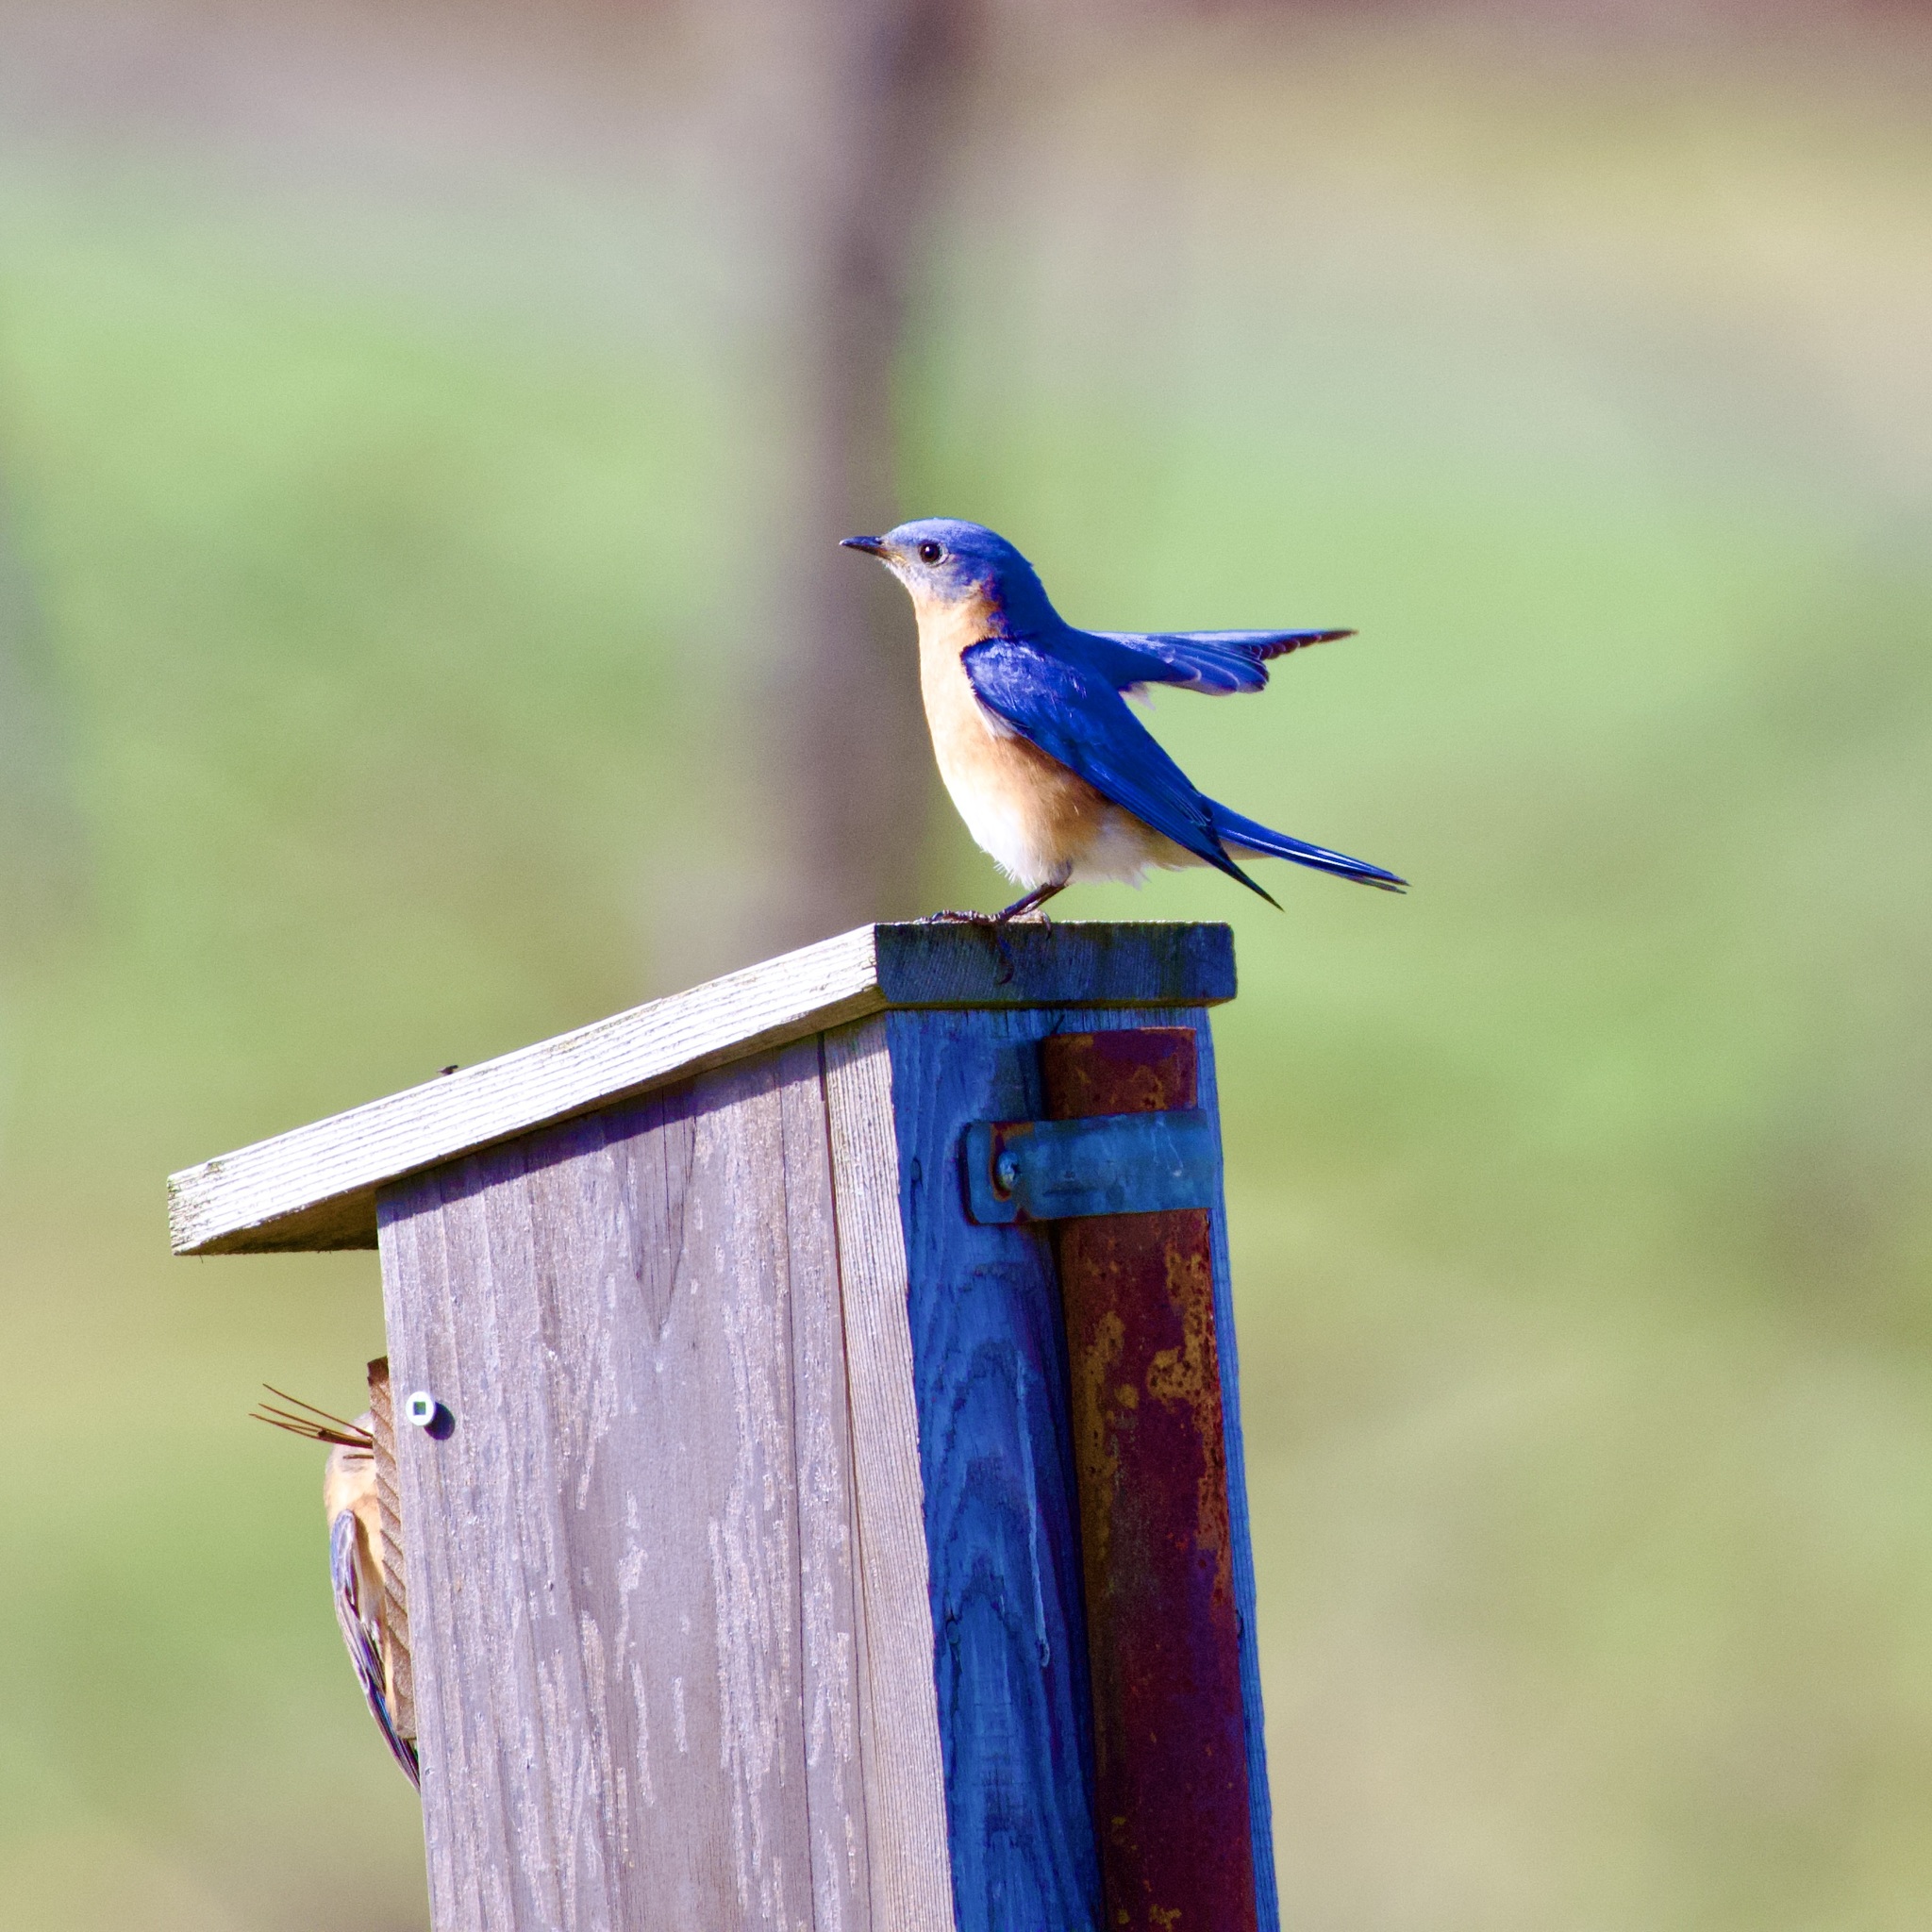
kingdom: Animalia
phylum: Chordata
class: Aves
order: Passeriformes
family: Turdidae
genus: Sialia
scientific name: Sialia sialis
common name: Eastern bluebird
